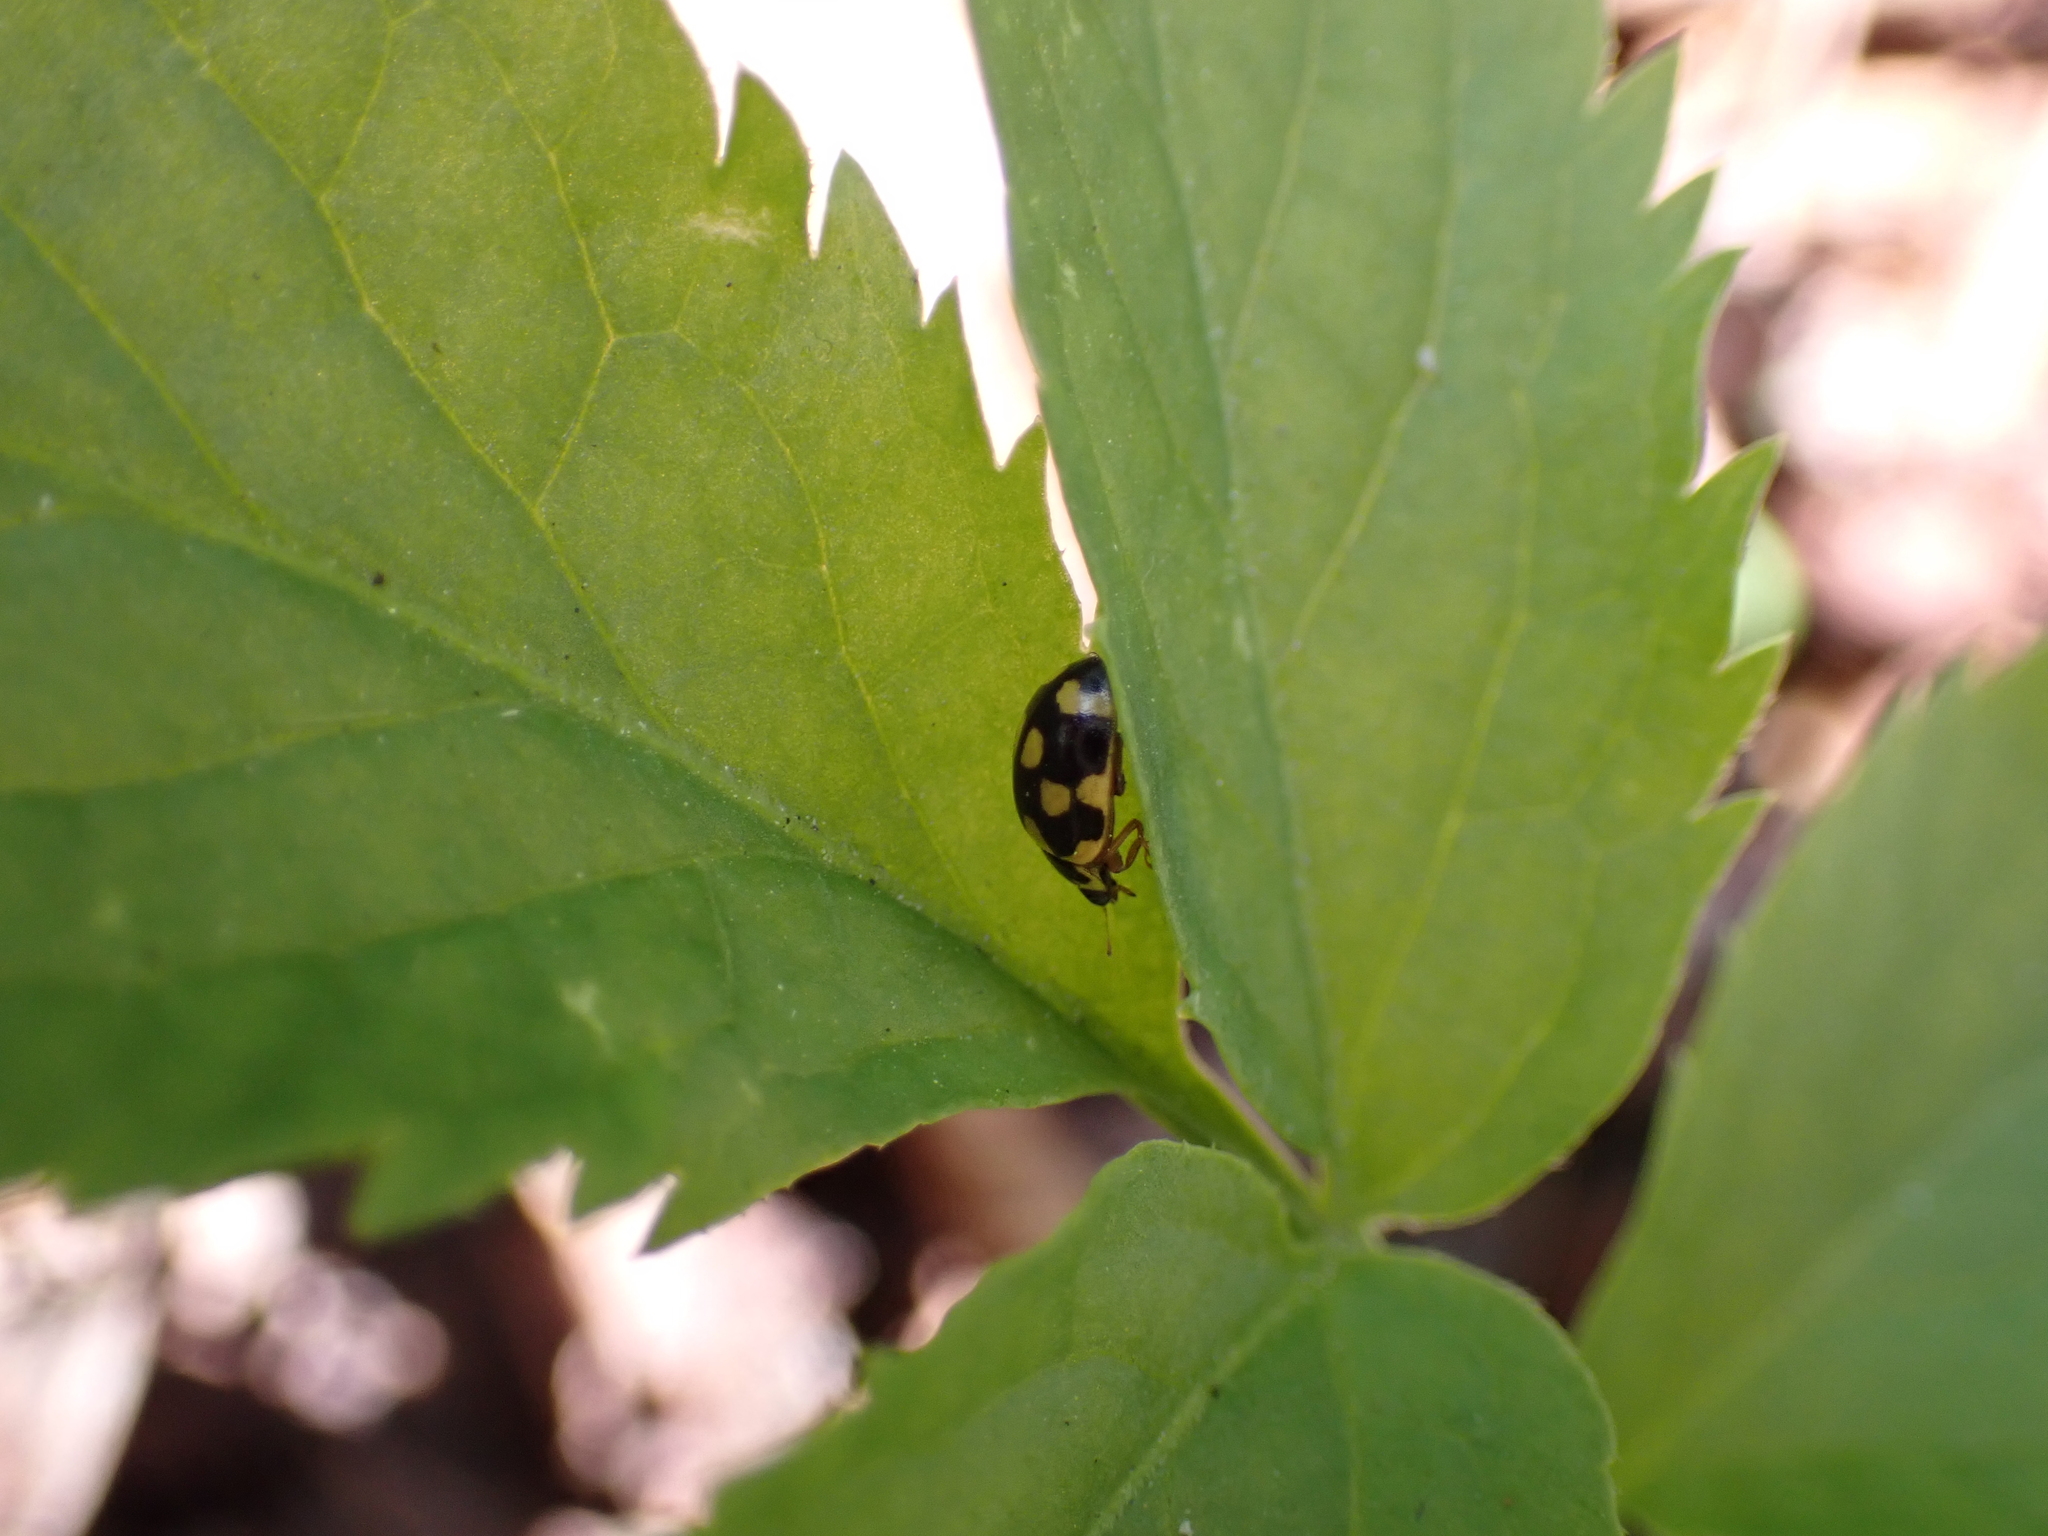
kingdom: Animalia
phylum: Arthropoda
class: Insecta
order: Coleoptera
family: Coccinellidae
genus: Propylaea
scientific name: Propylaea quatuordecimpunctata
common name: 14-spotted ladybird beetle
